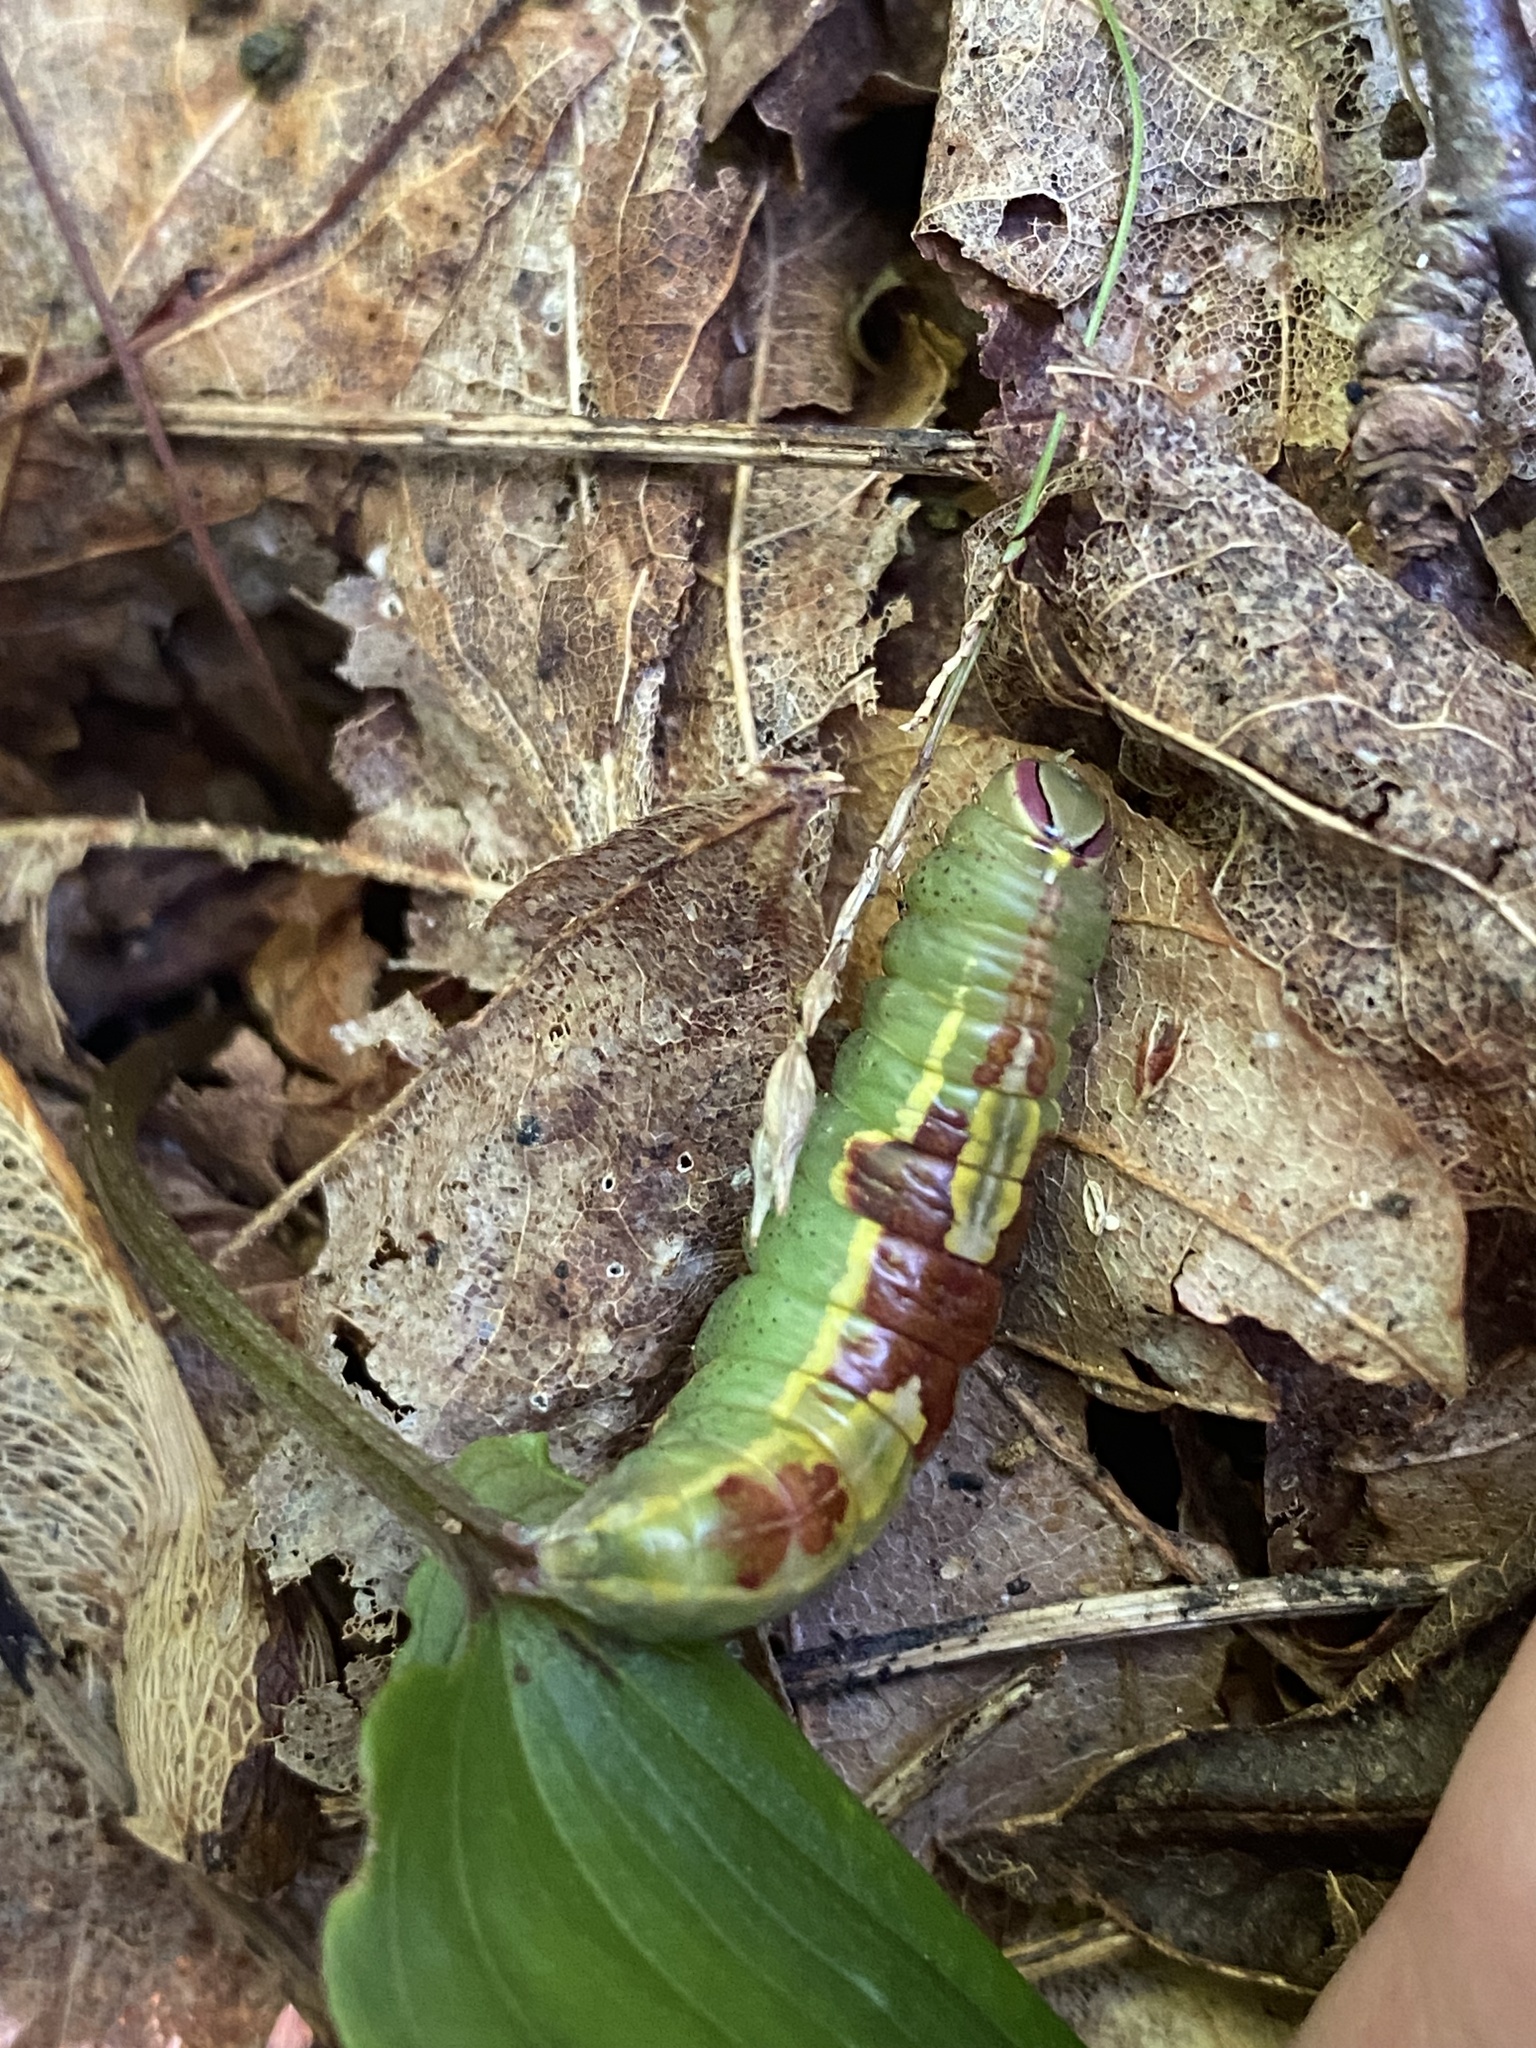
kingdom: Animalia
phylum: Arthropoda
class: Insecta
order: Lepidoptera
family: Notodontidae
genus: Disphragis
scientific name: Disphragis Cecrita guttivitta
